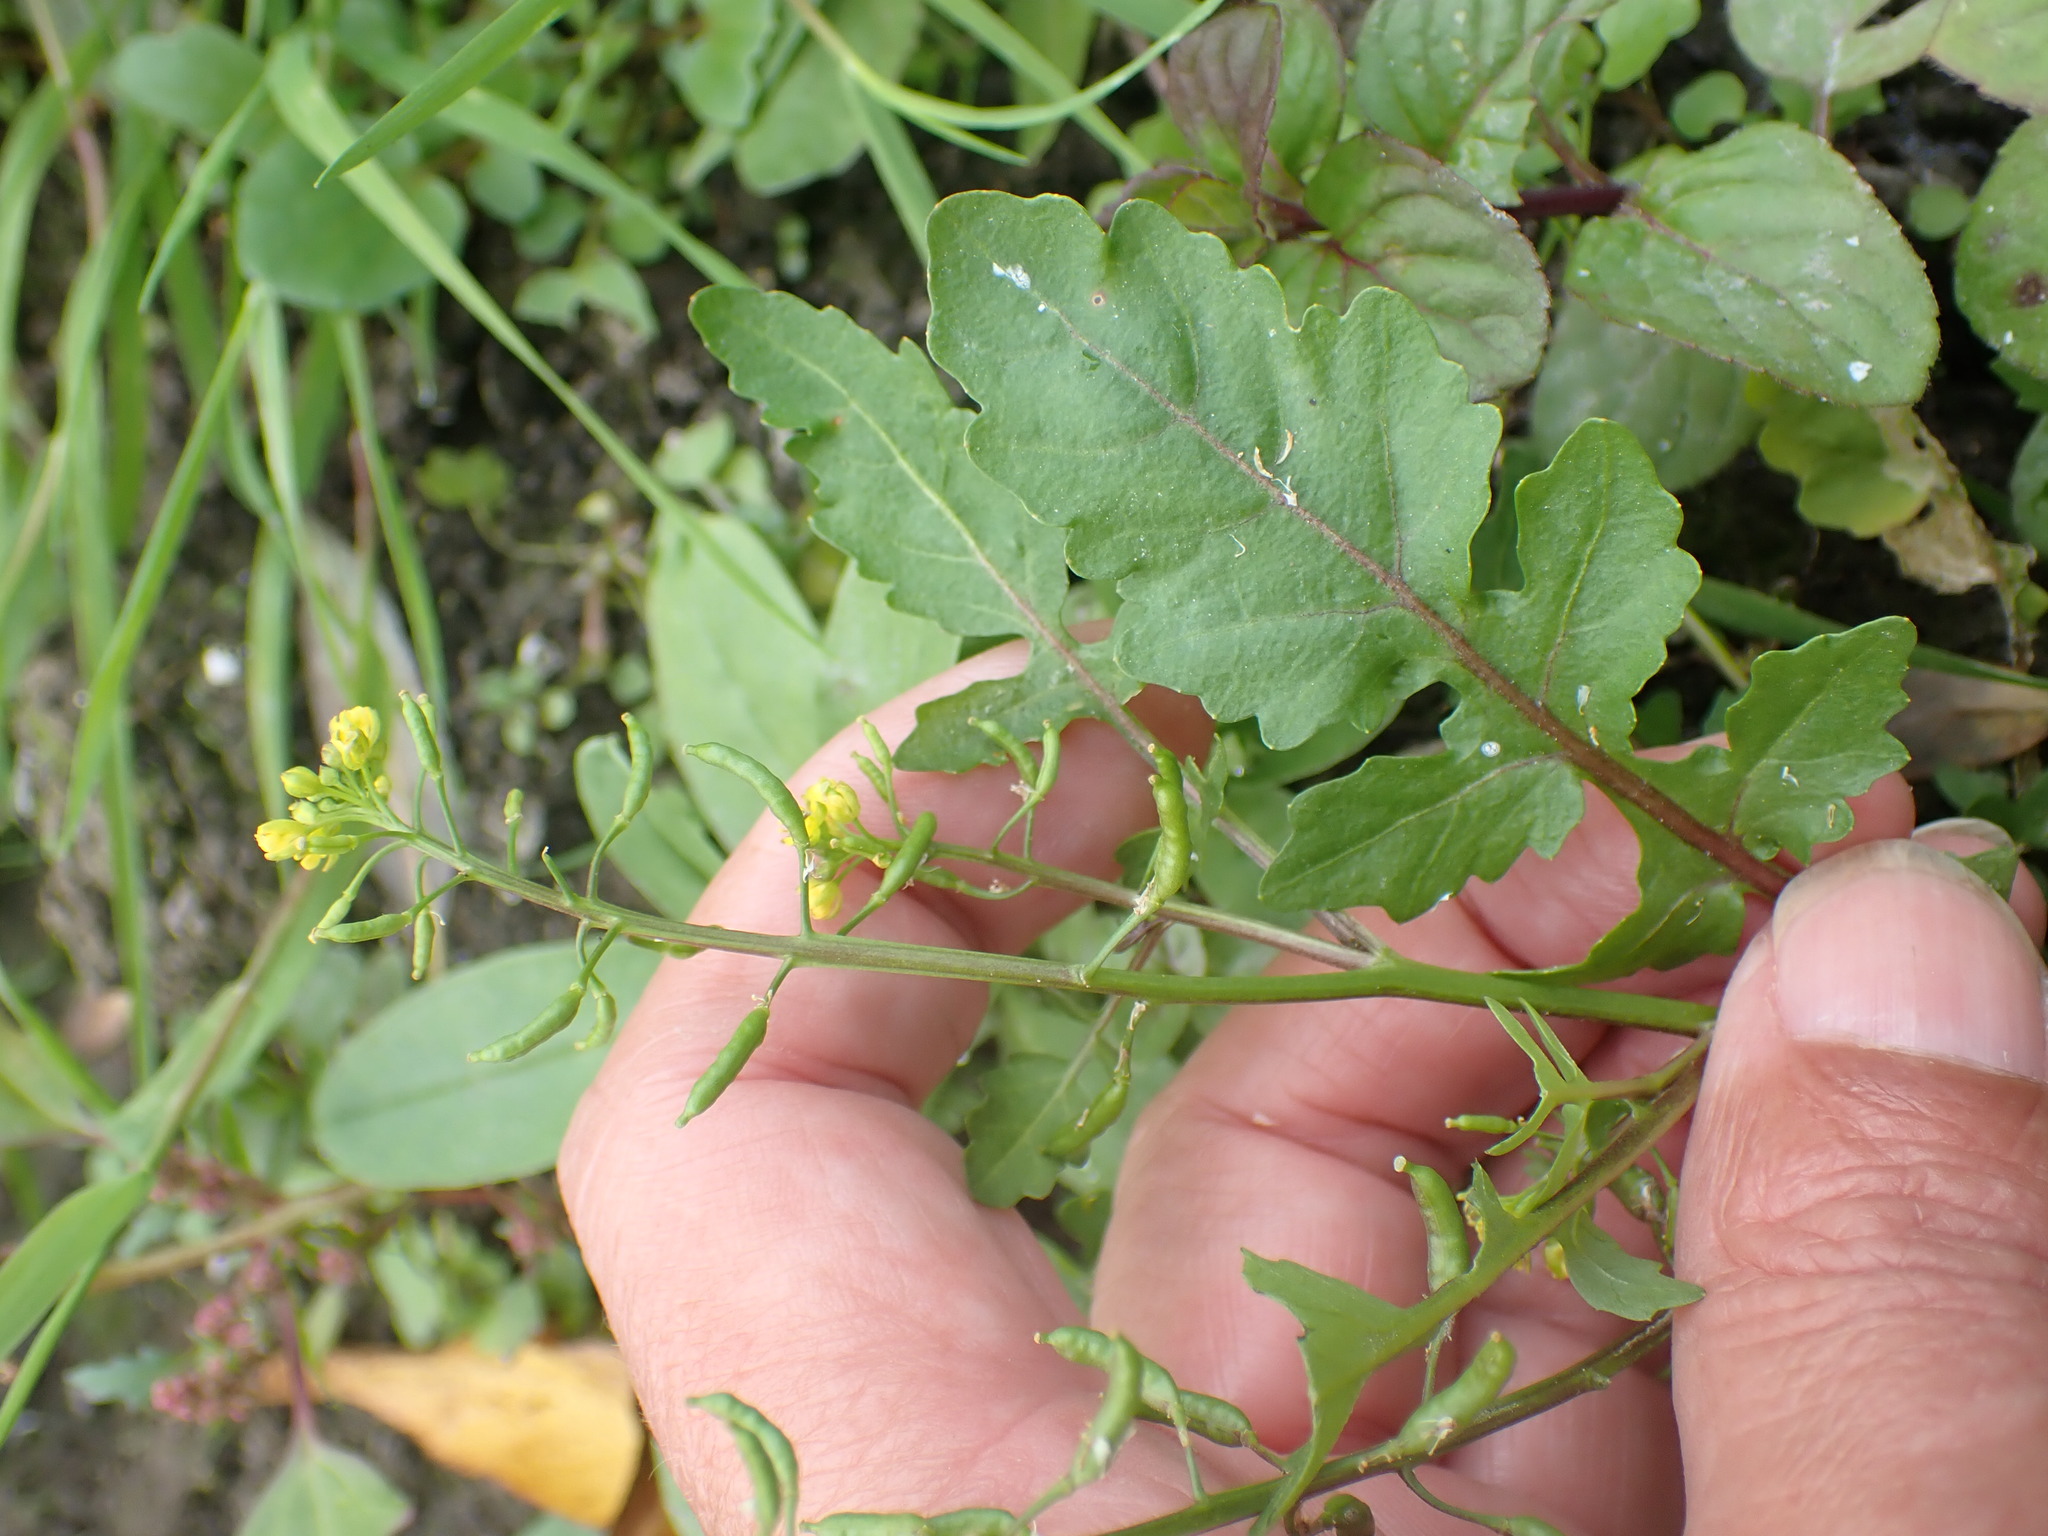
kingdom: Plantae
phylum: Tracheophyta
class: Magnoliopsida
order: Brassicales
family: Brassicaceae
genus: Rorippa
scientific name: Rorippa palustris
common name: Marsh yellow-cress
